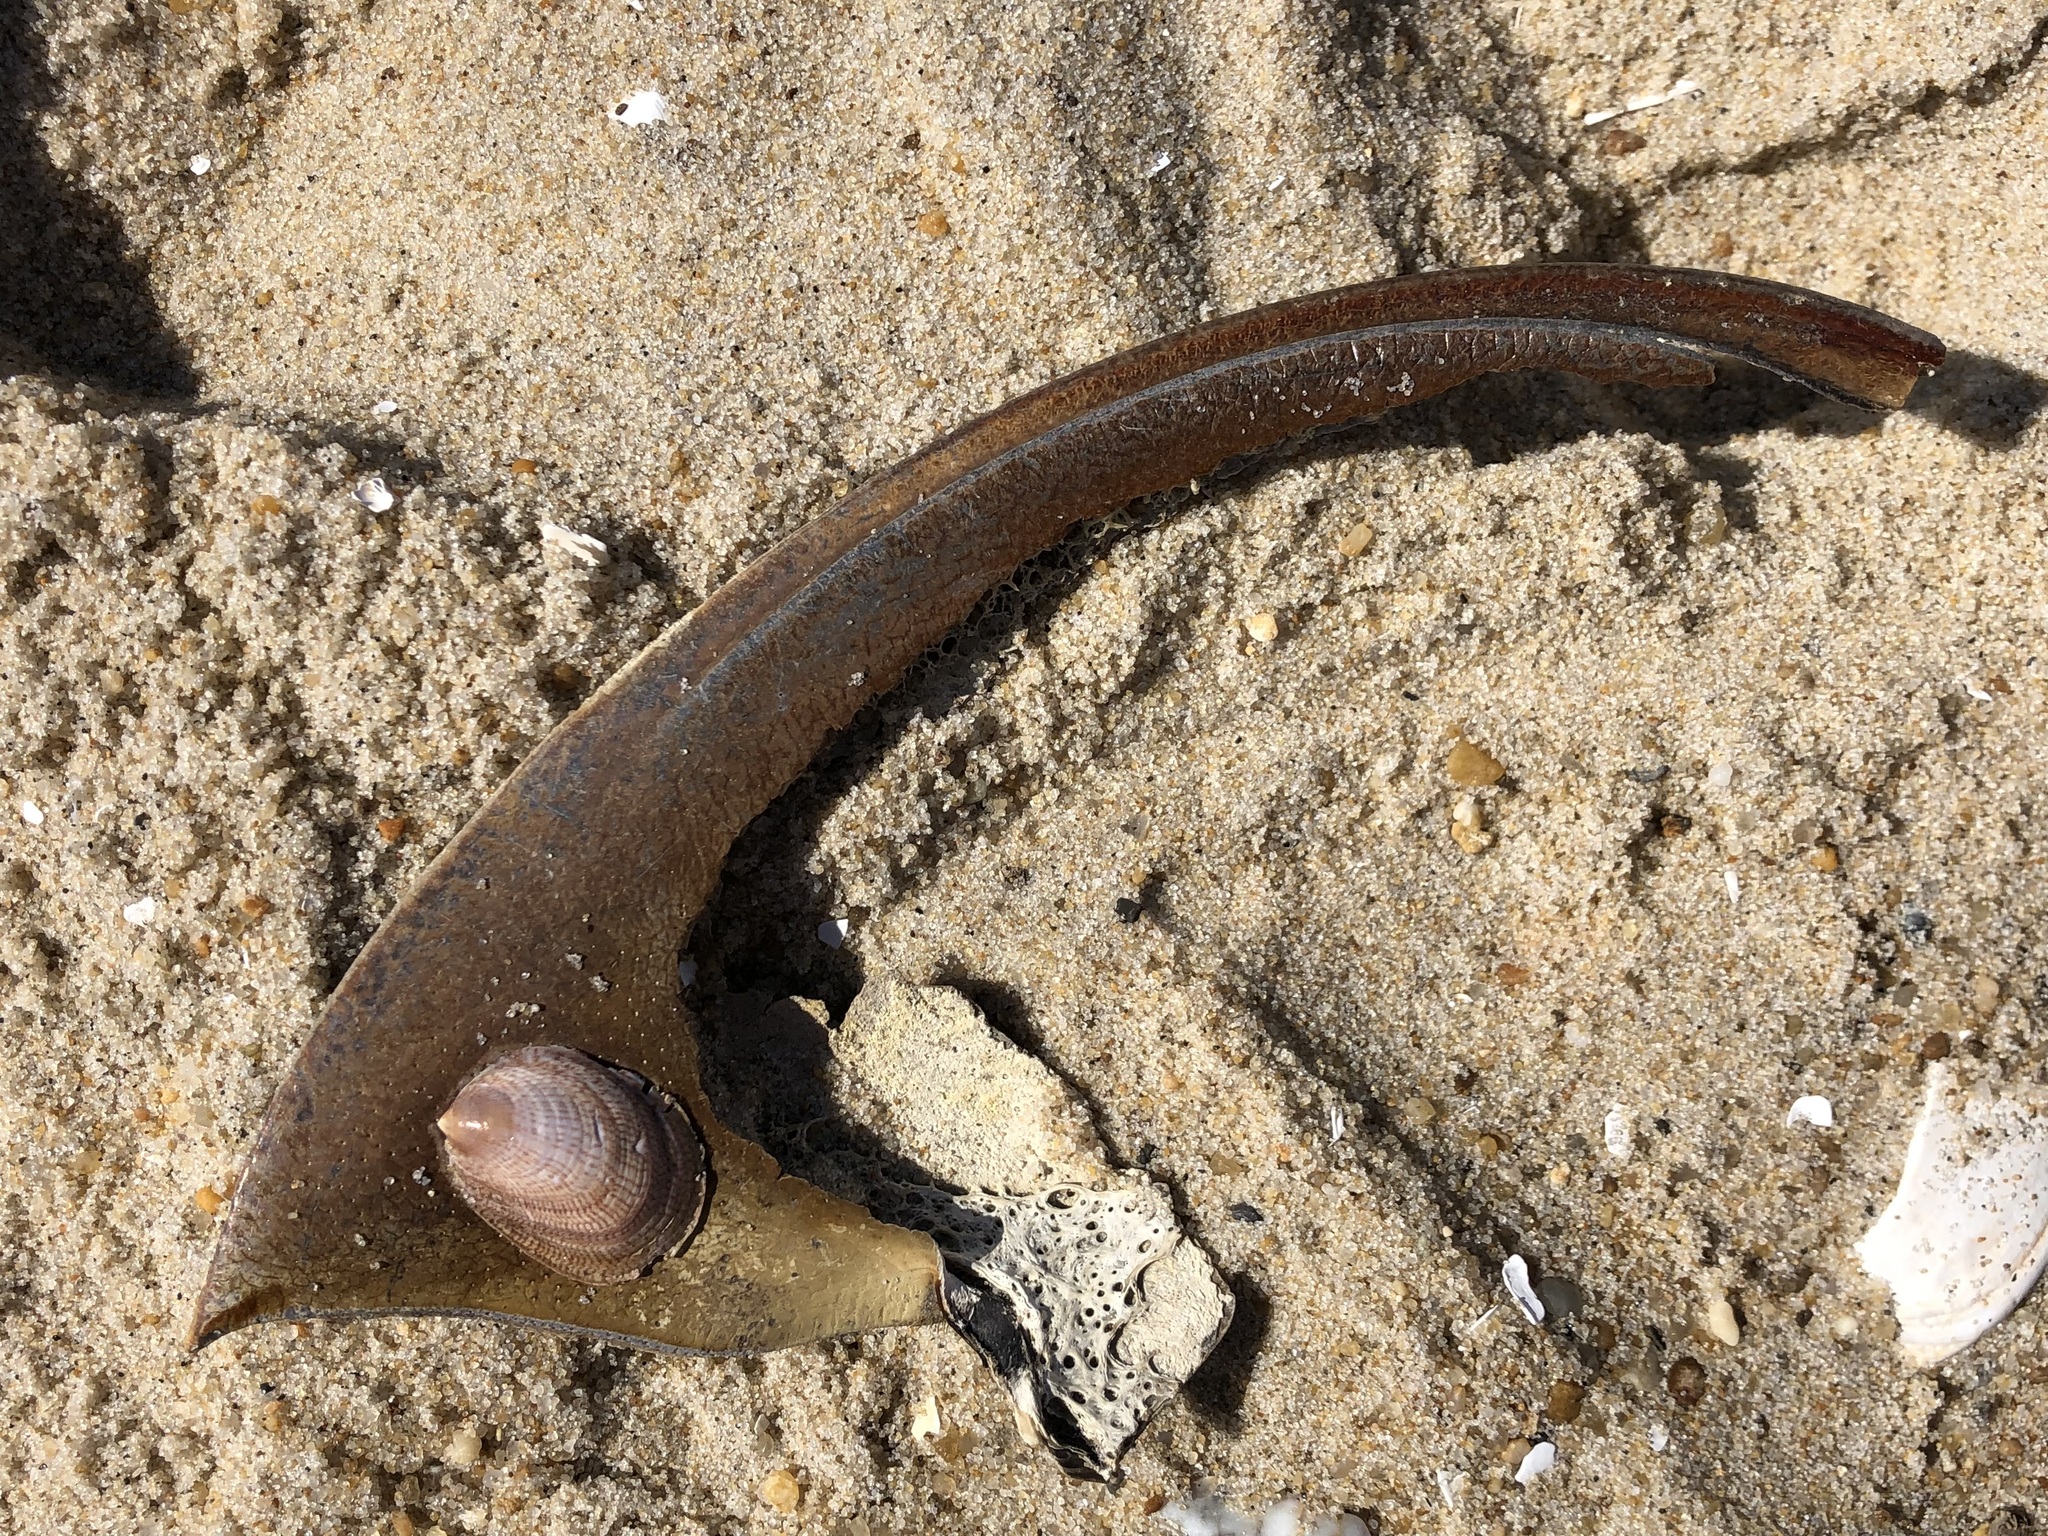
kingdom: Animalia
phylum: Arthropoda
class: Merostomata
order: Xiphosurida
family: Limulidae
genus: Limulus
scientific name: Limulus polyphemus
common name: Horseshoe crab
